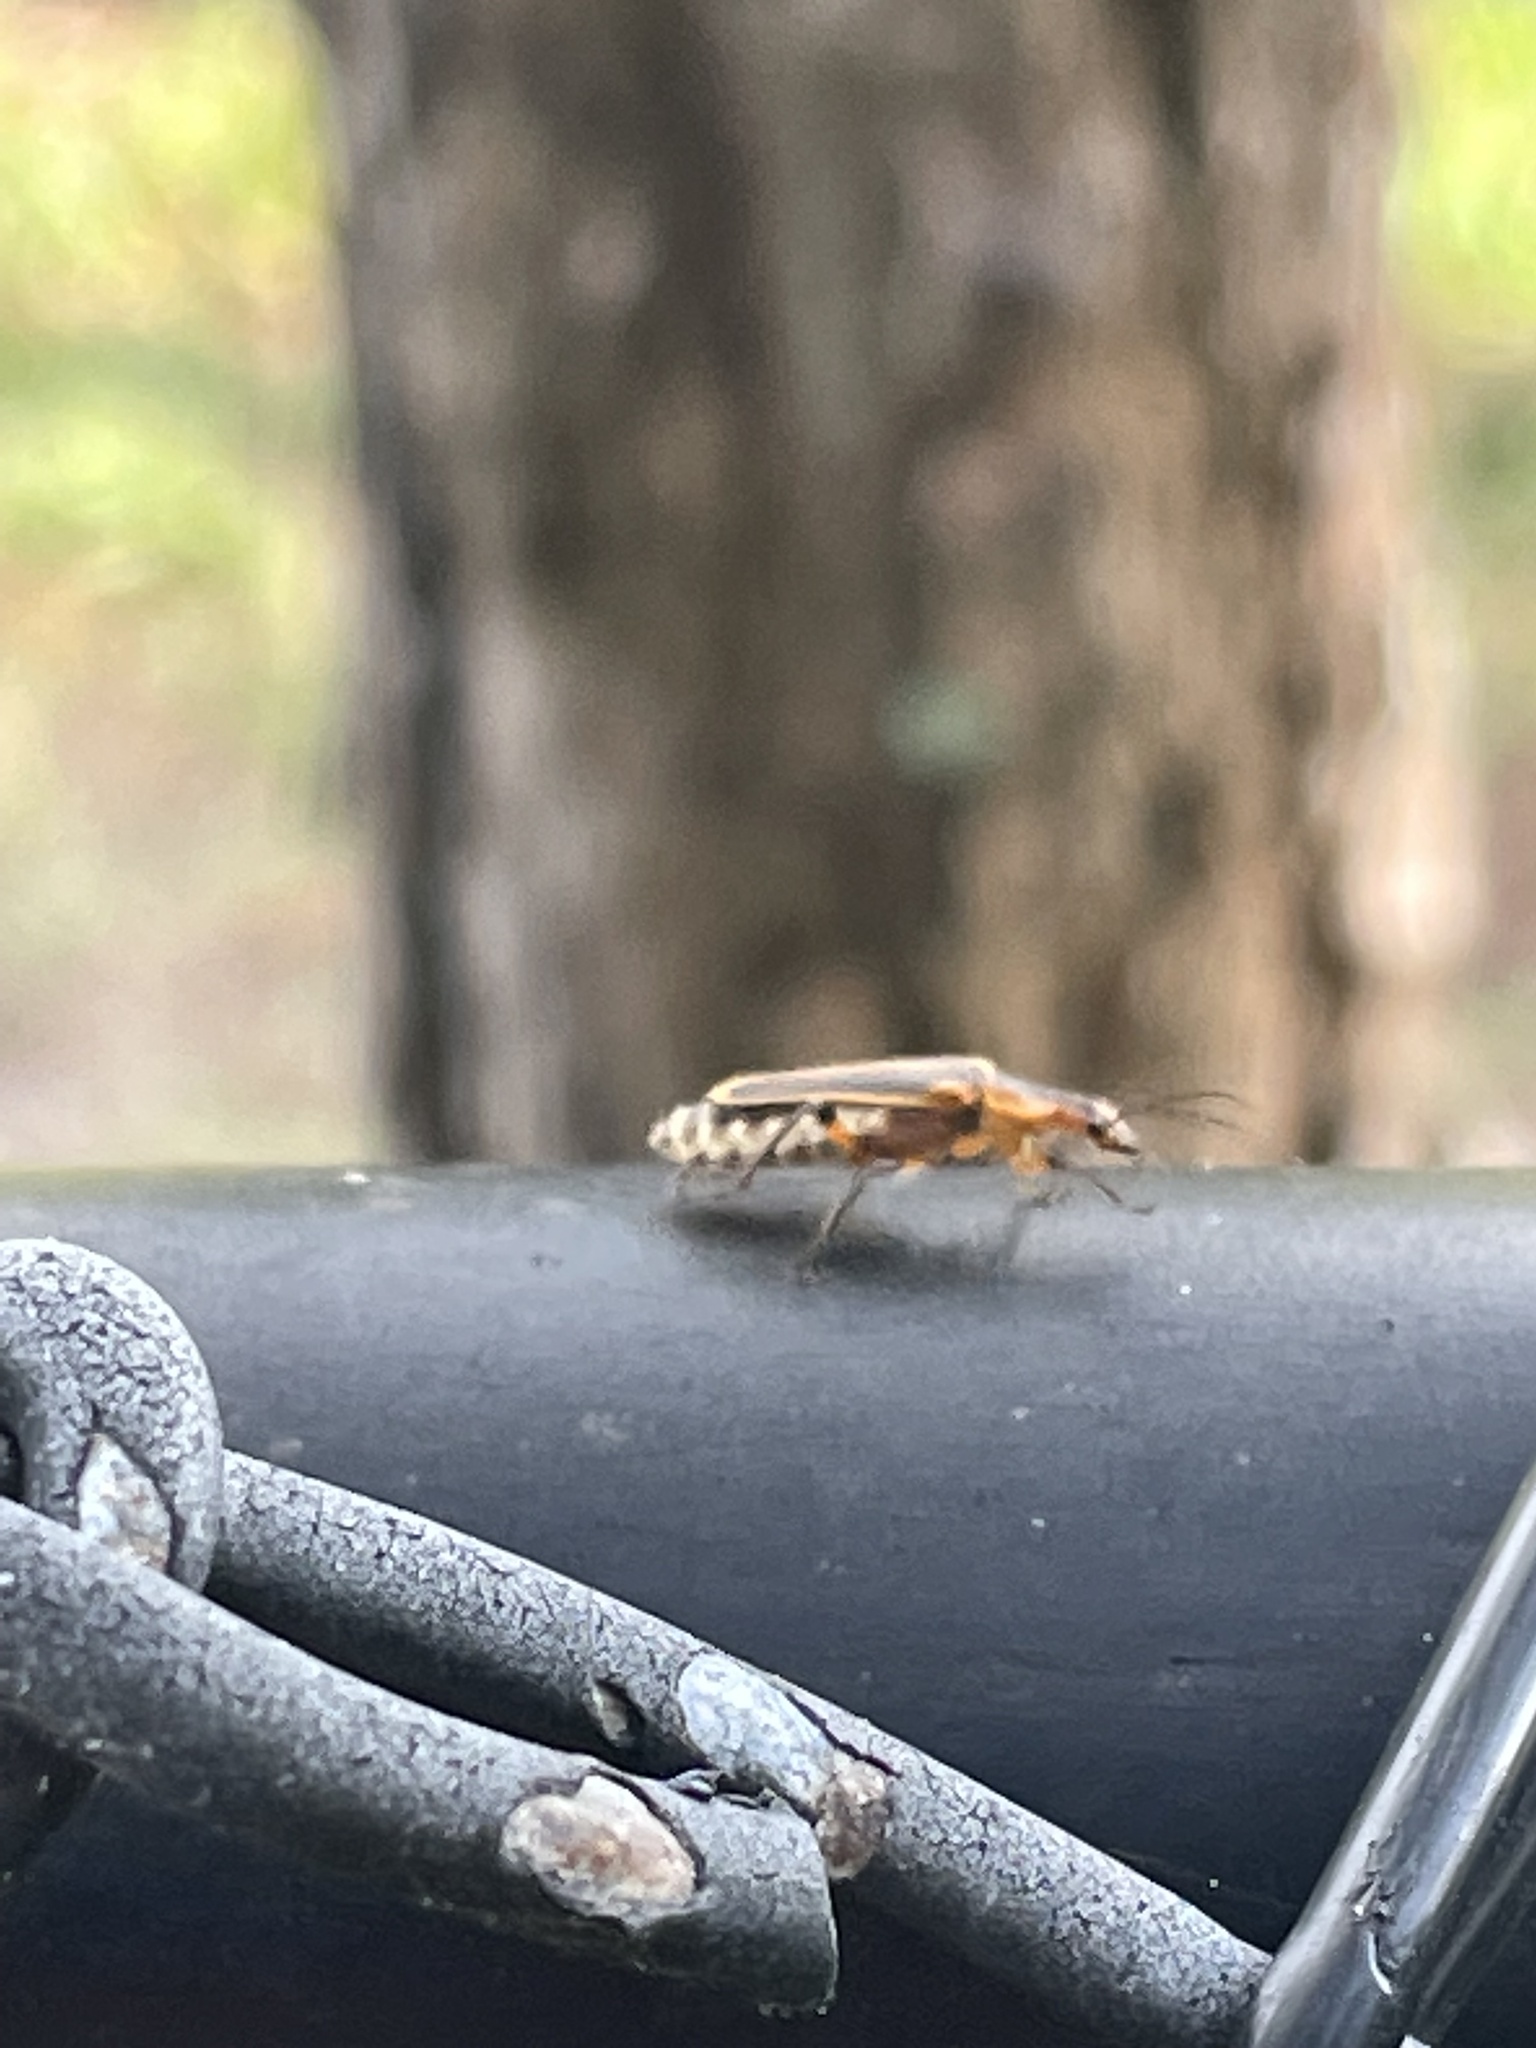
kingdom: Animalia
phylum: Arthropoda
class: Insecta
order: Coleoptera
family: Cantharidae
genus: Chauliognathus
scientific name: Chauliognathus marginatus
